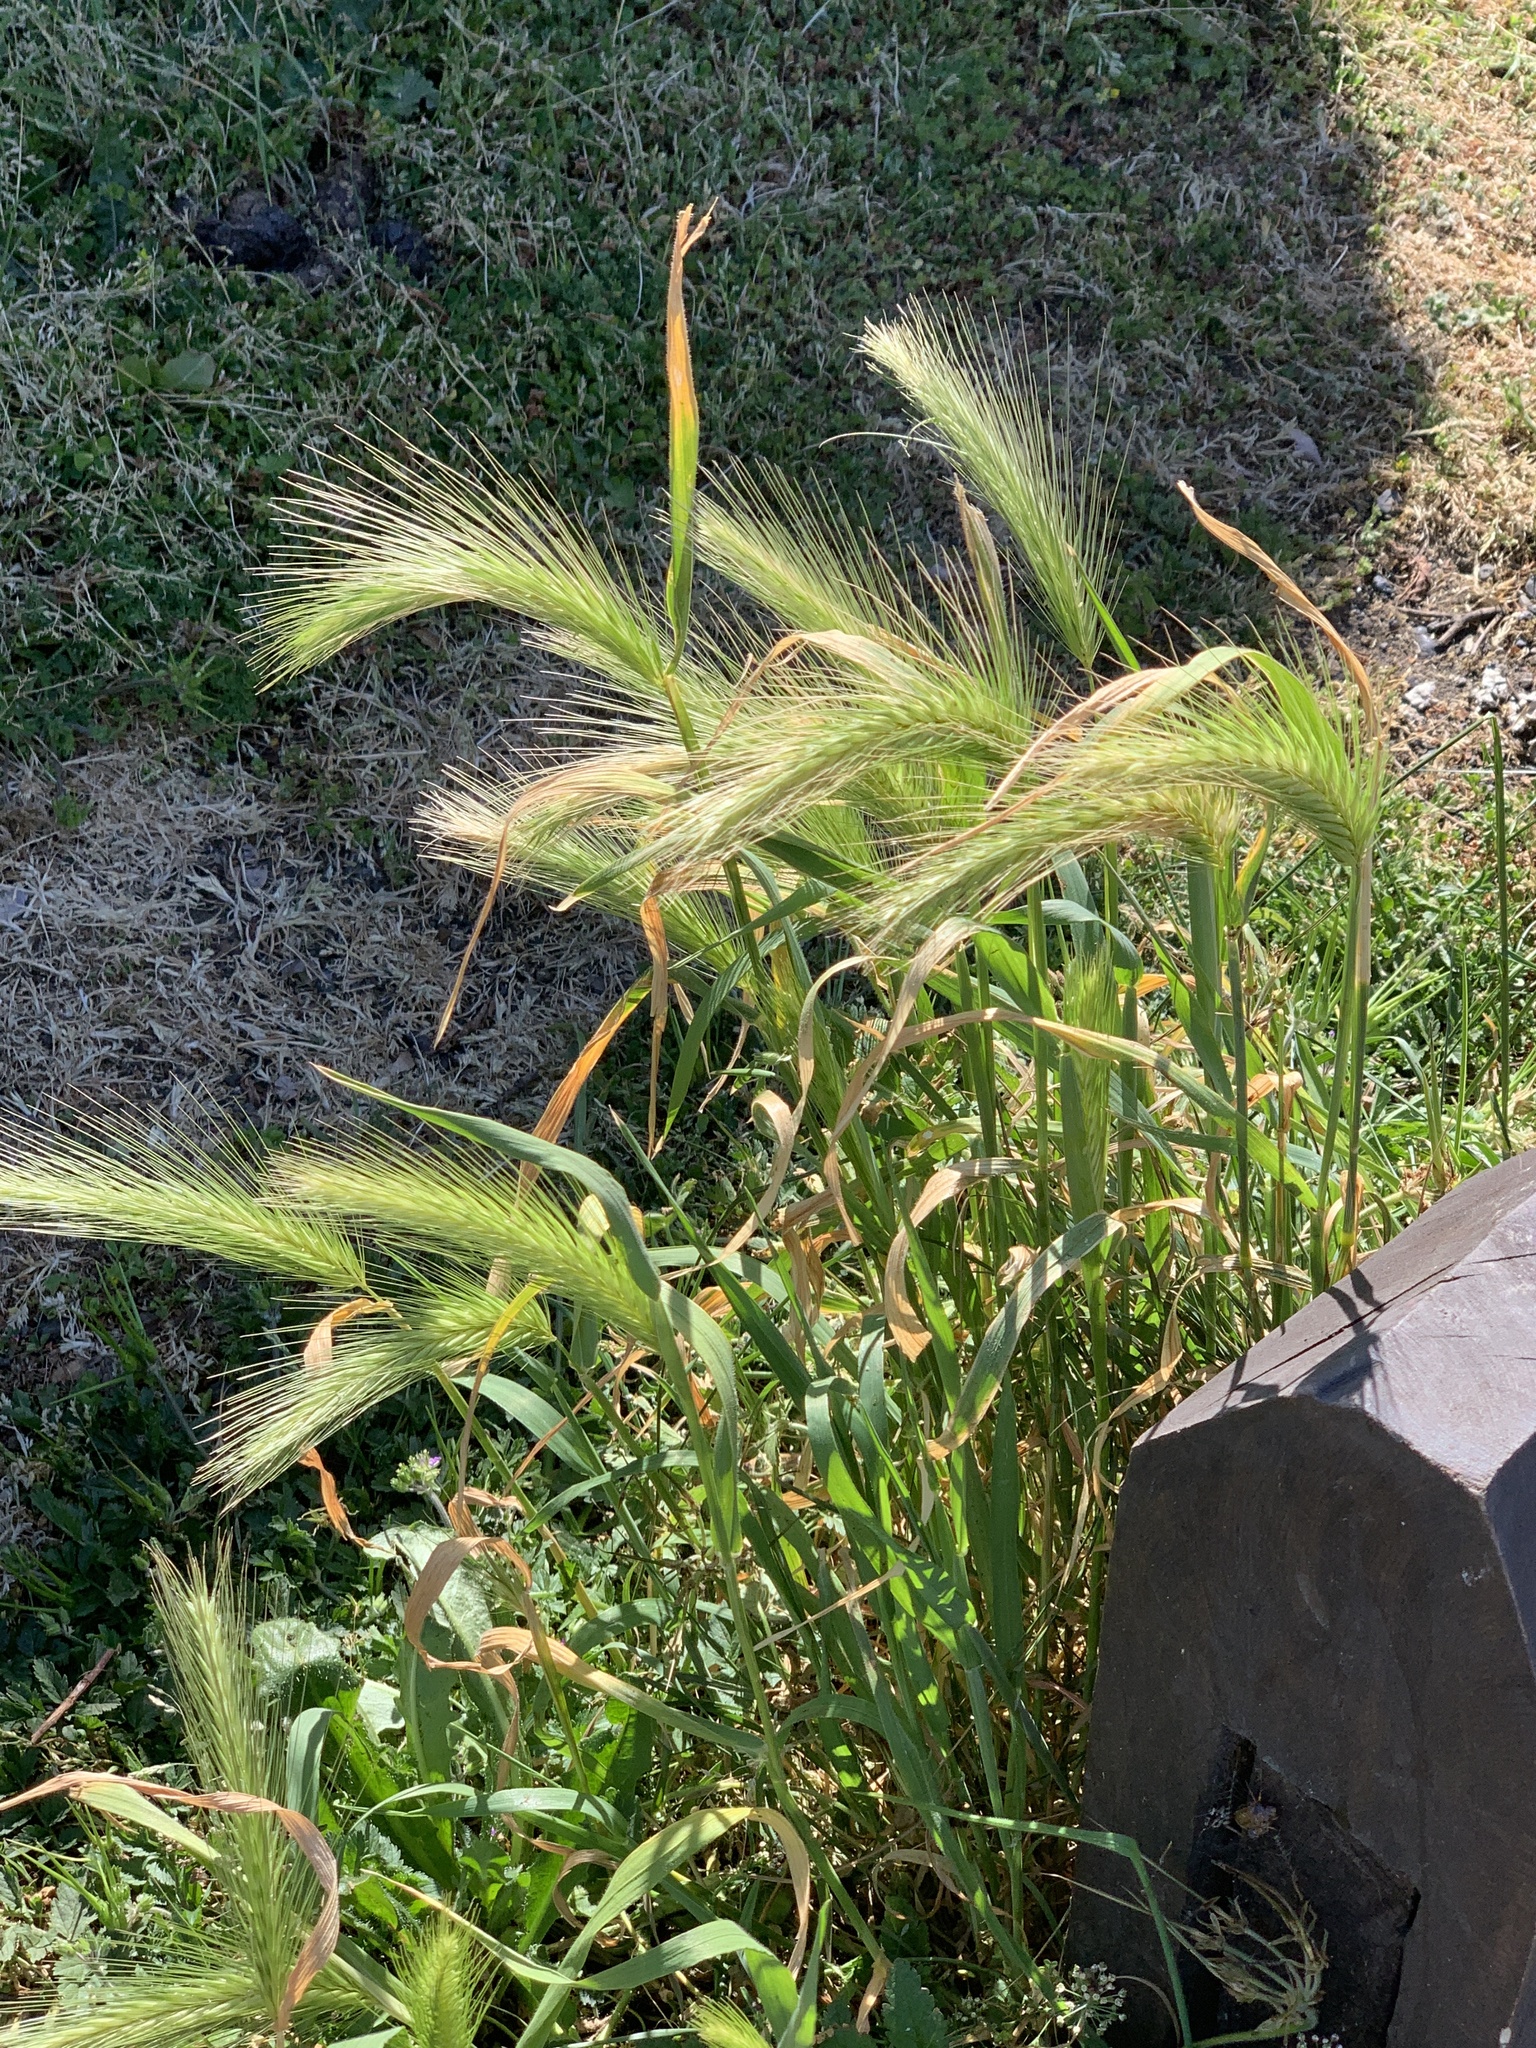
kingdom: Plantae
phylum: Tracheophyta
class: Liliopsida
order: Poales
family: Poaceae
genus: Hordeum
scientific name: Hordeum murinum
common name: Wall barley
